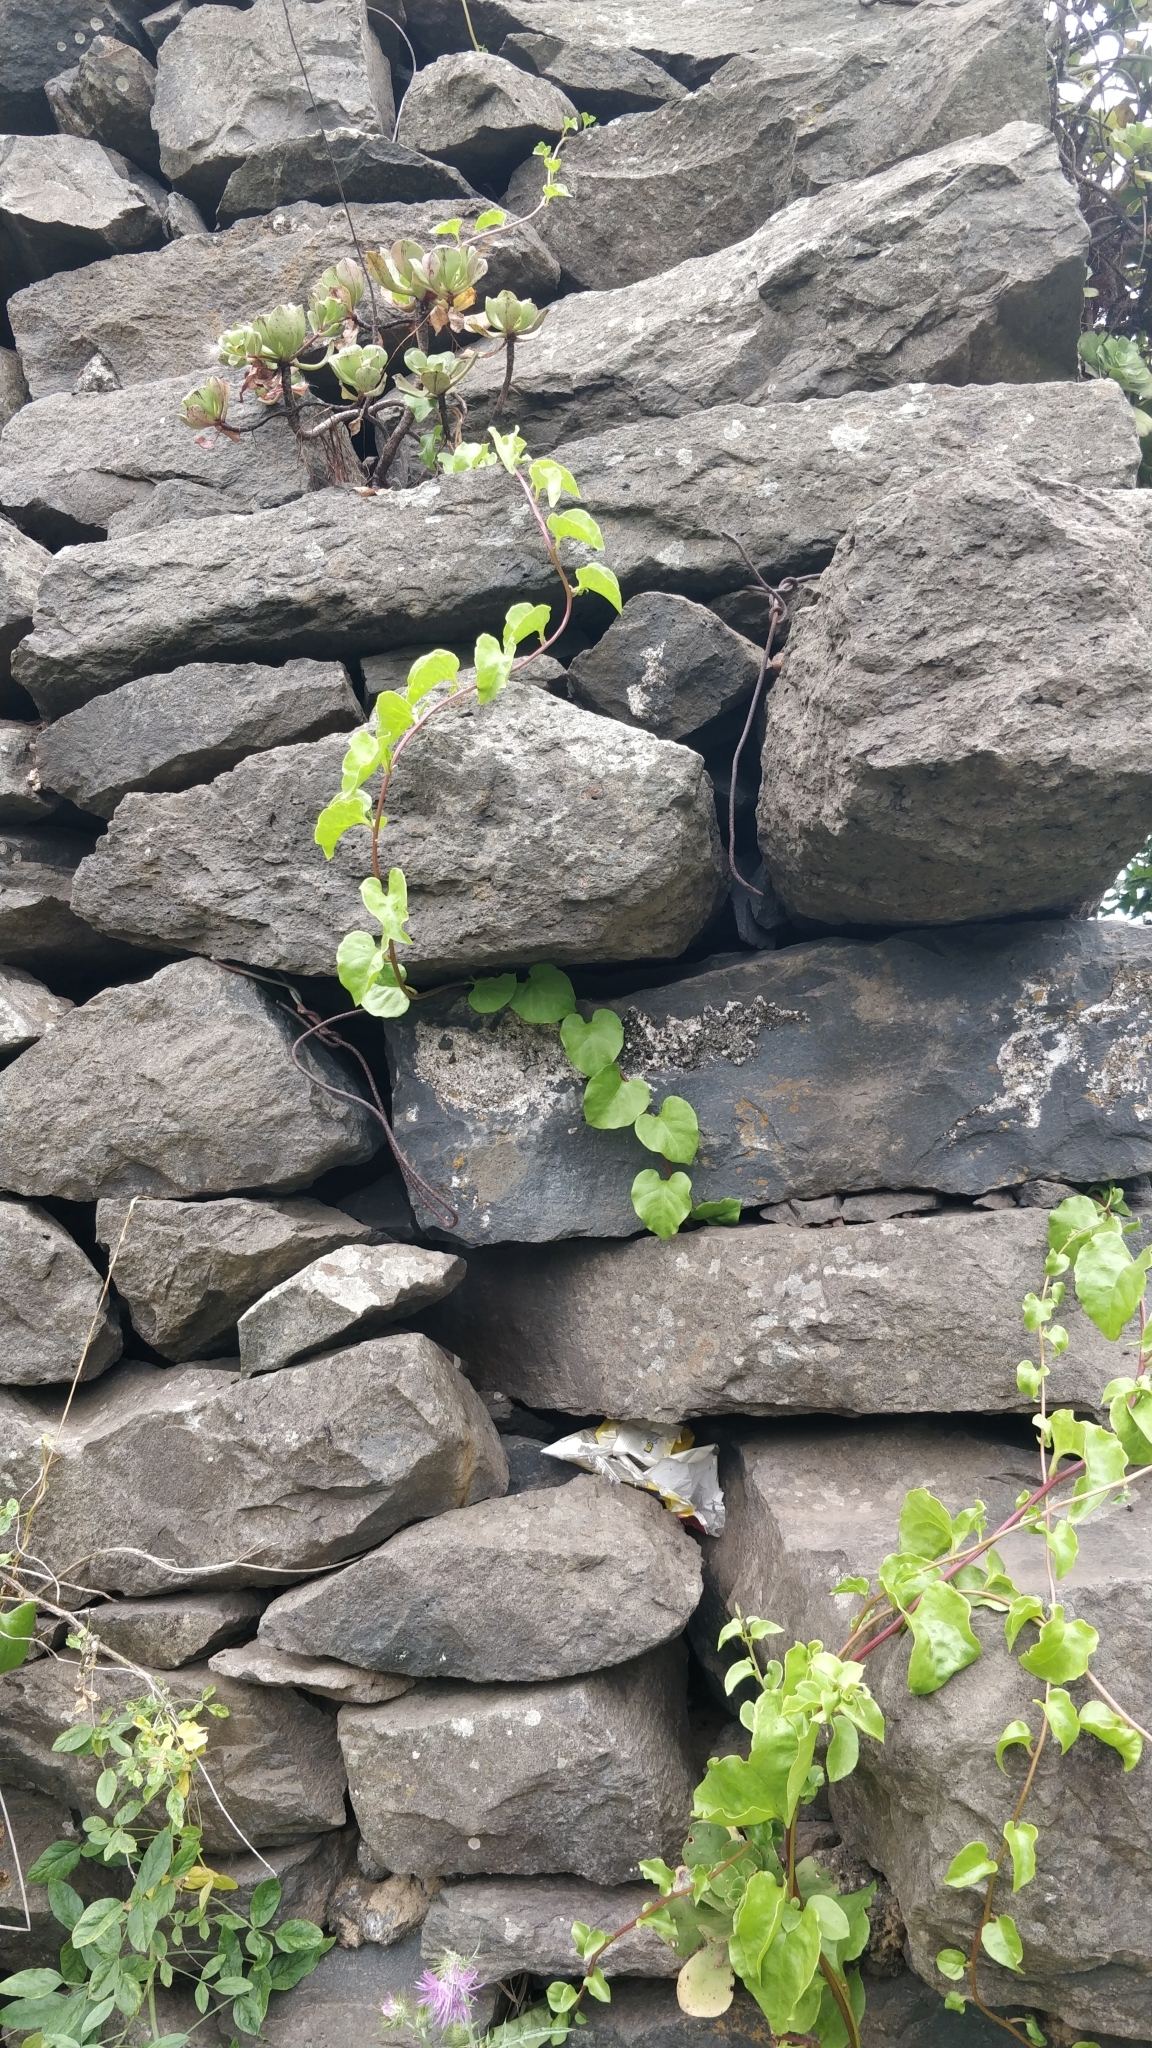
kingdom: Plantae
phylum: Tracheophyta
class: Magnoliopsida
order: Caryophyllales
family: Basellaceae
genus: Anredera
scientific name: Anredera cordifolia
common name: Heartleaf madeiravine
